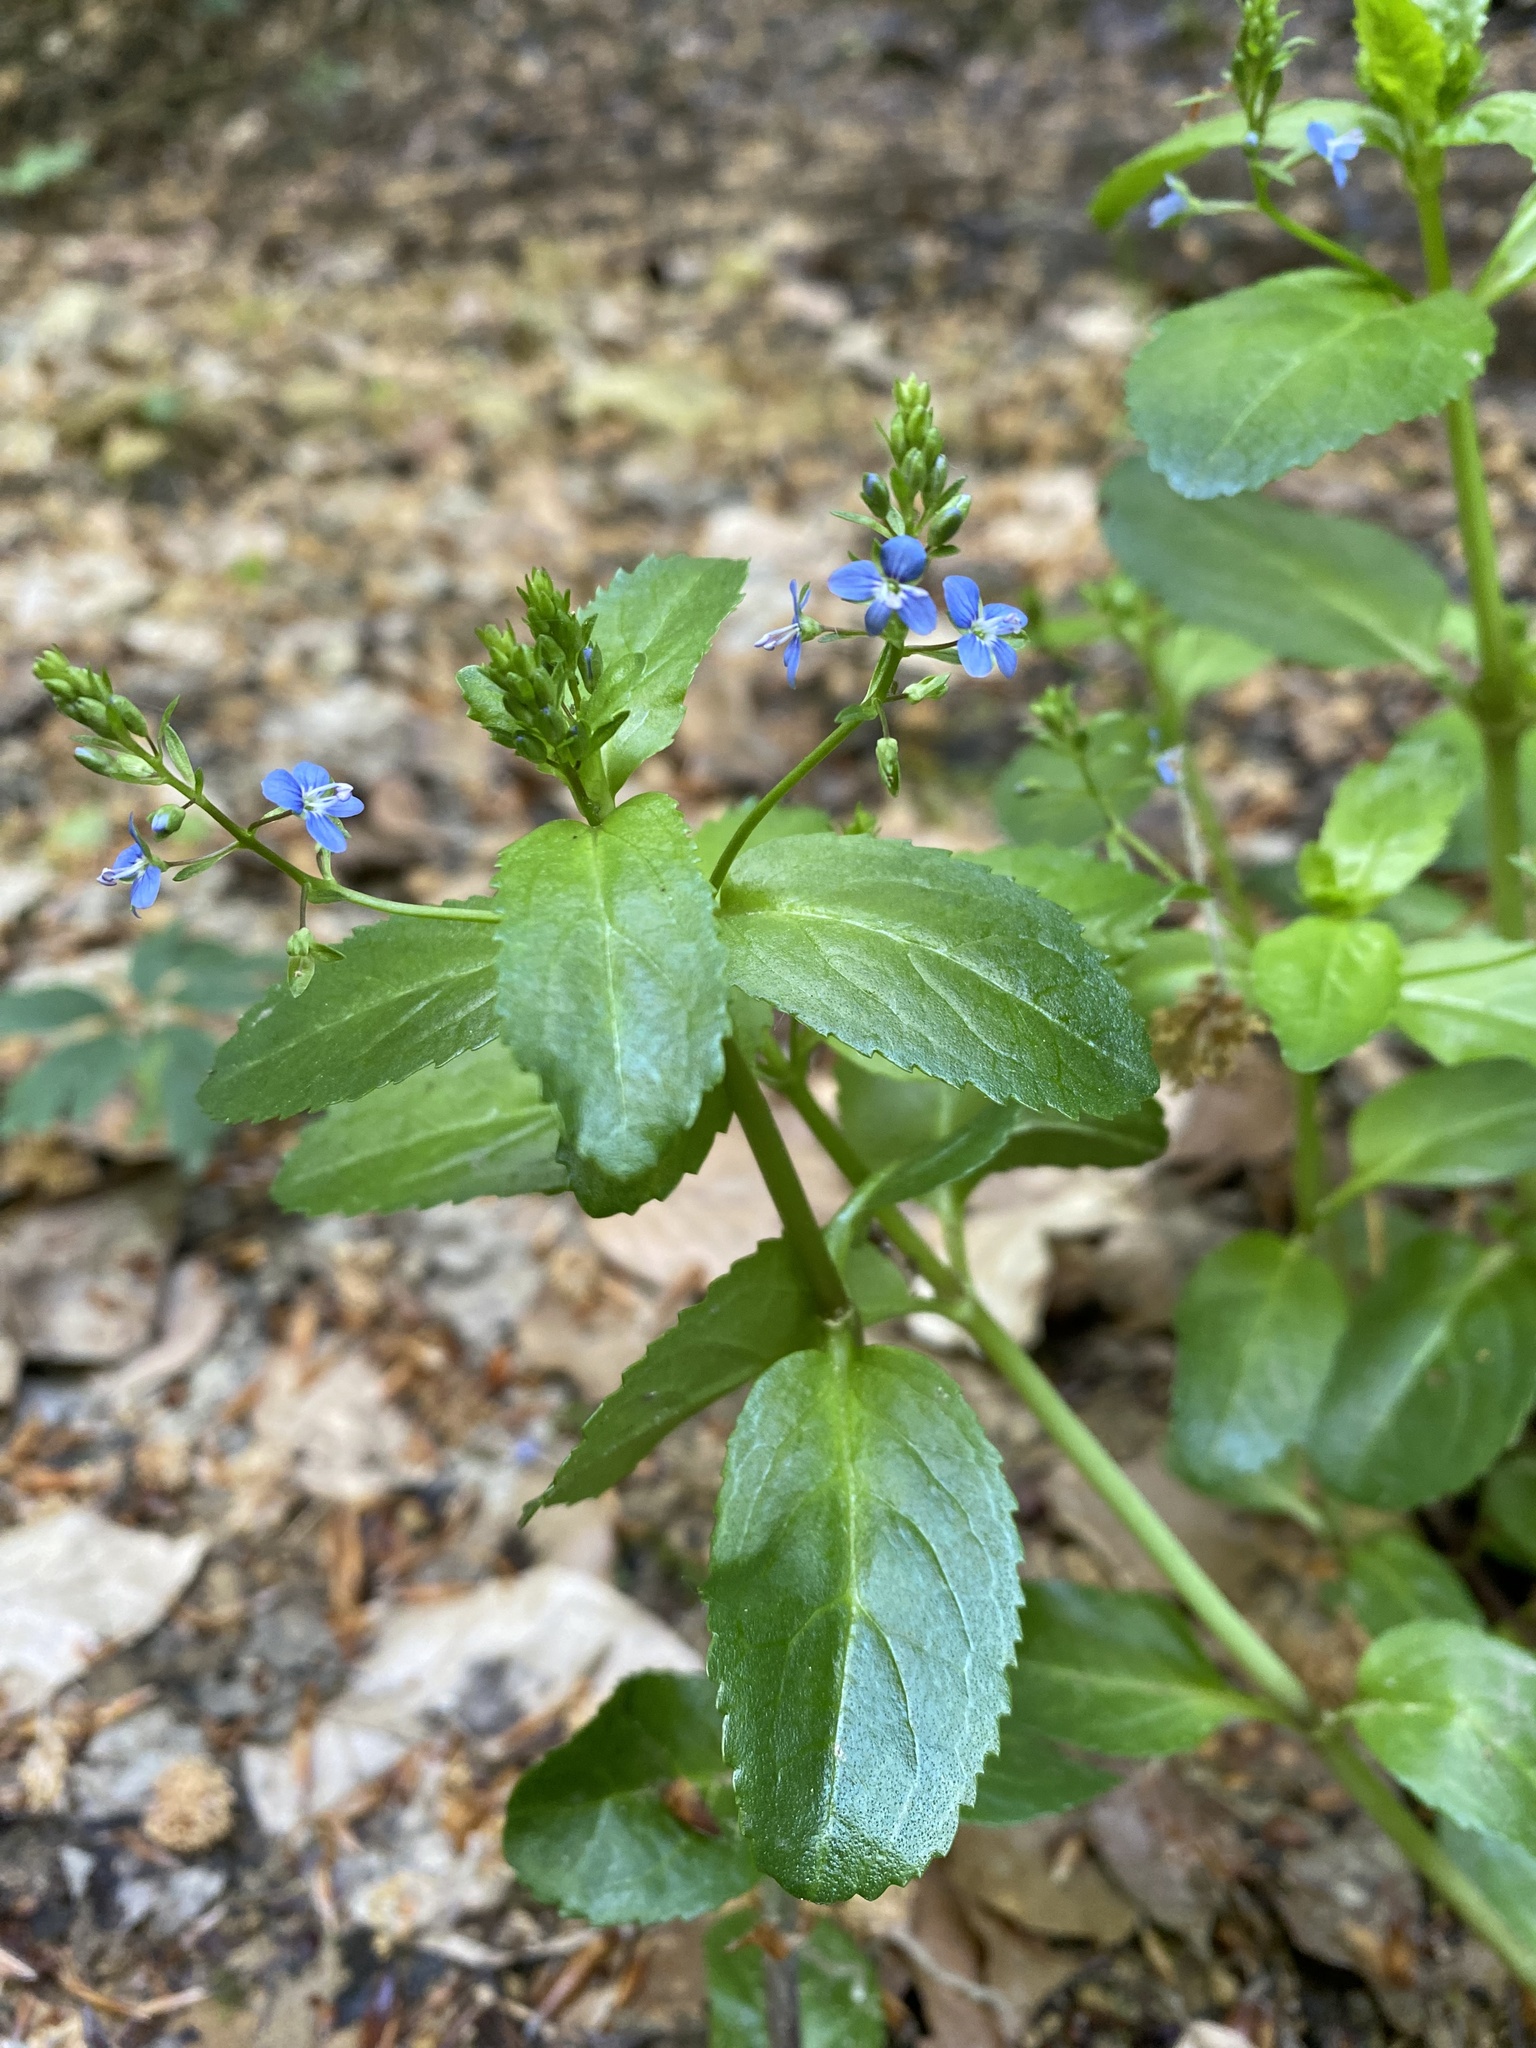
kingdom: Plantae
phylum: Tracheophyta
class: Magnoliopsida
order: Lamiales
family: Plantaginaceae
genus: Veronica
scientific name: Veronica beccabunga
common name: Brooklime
